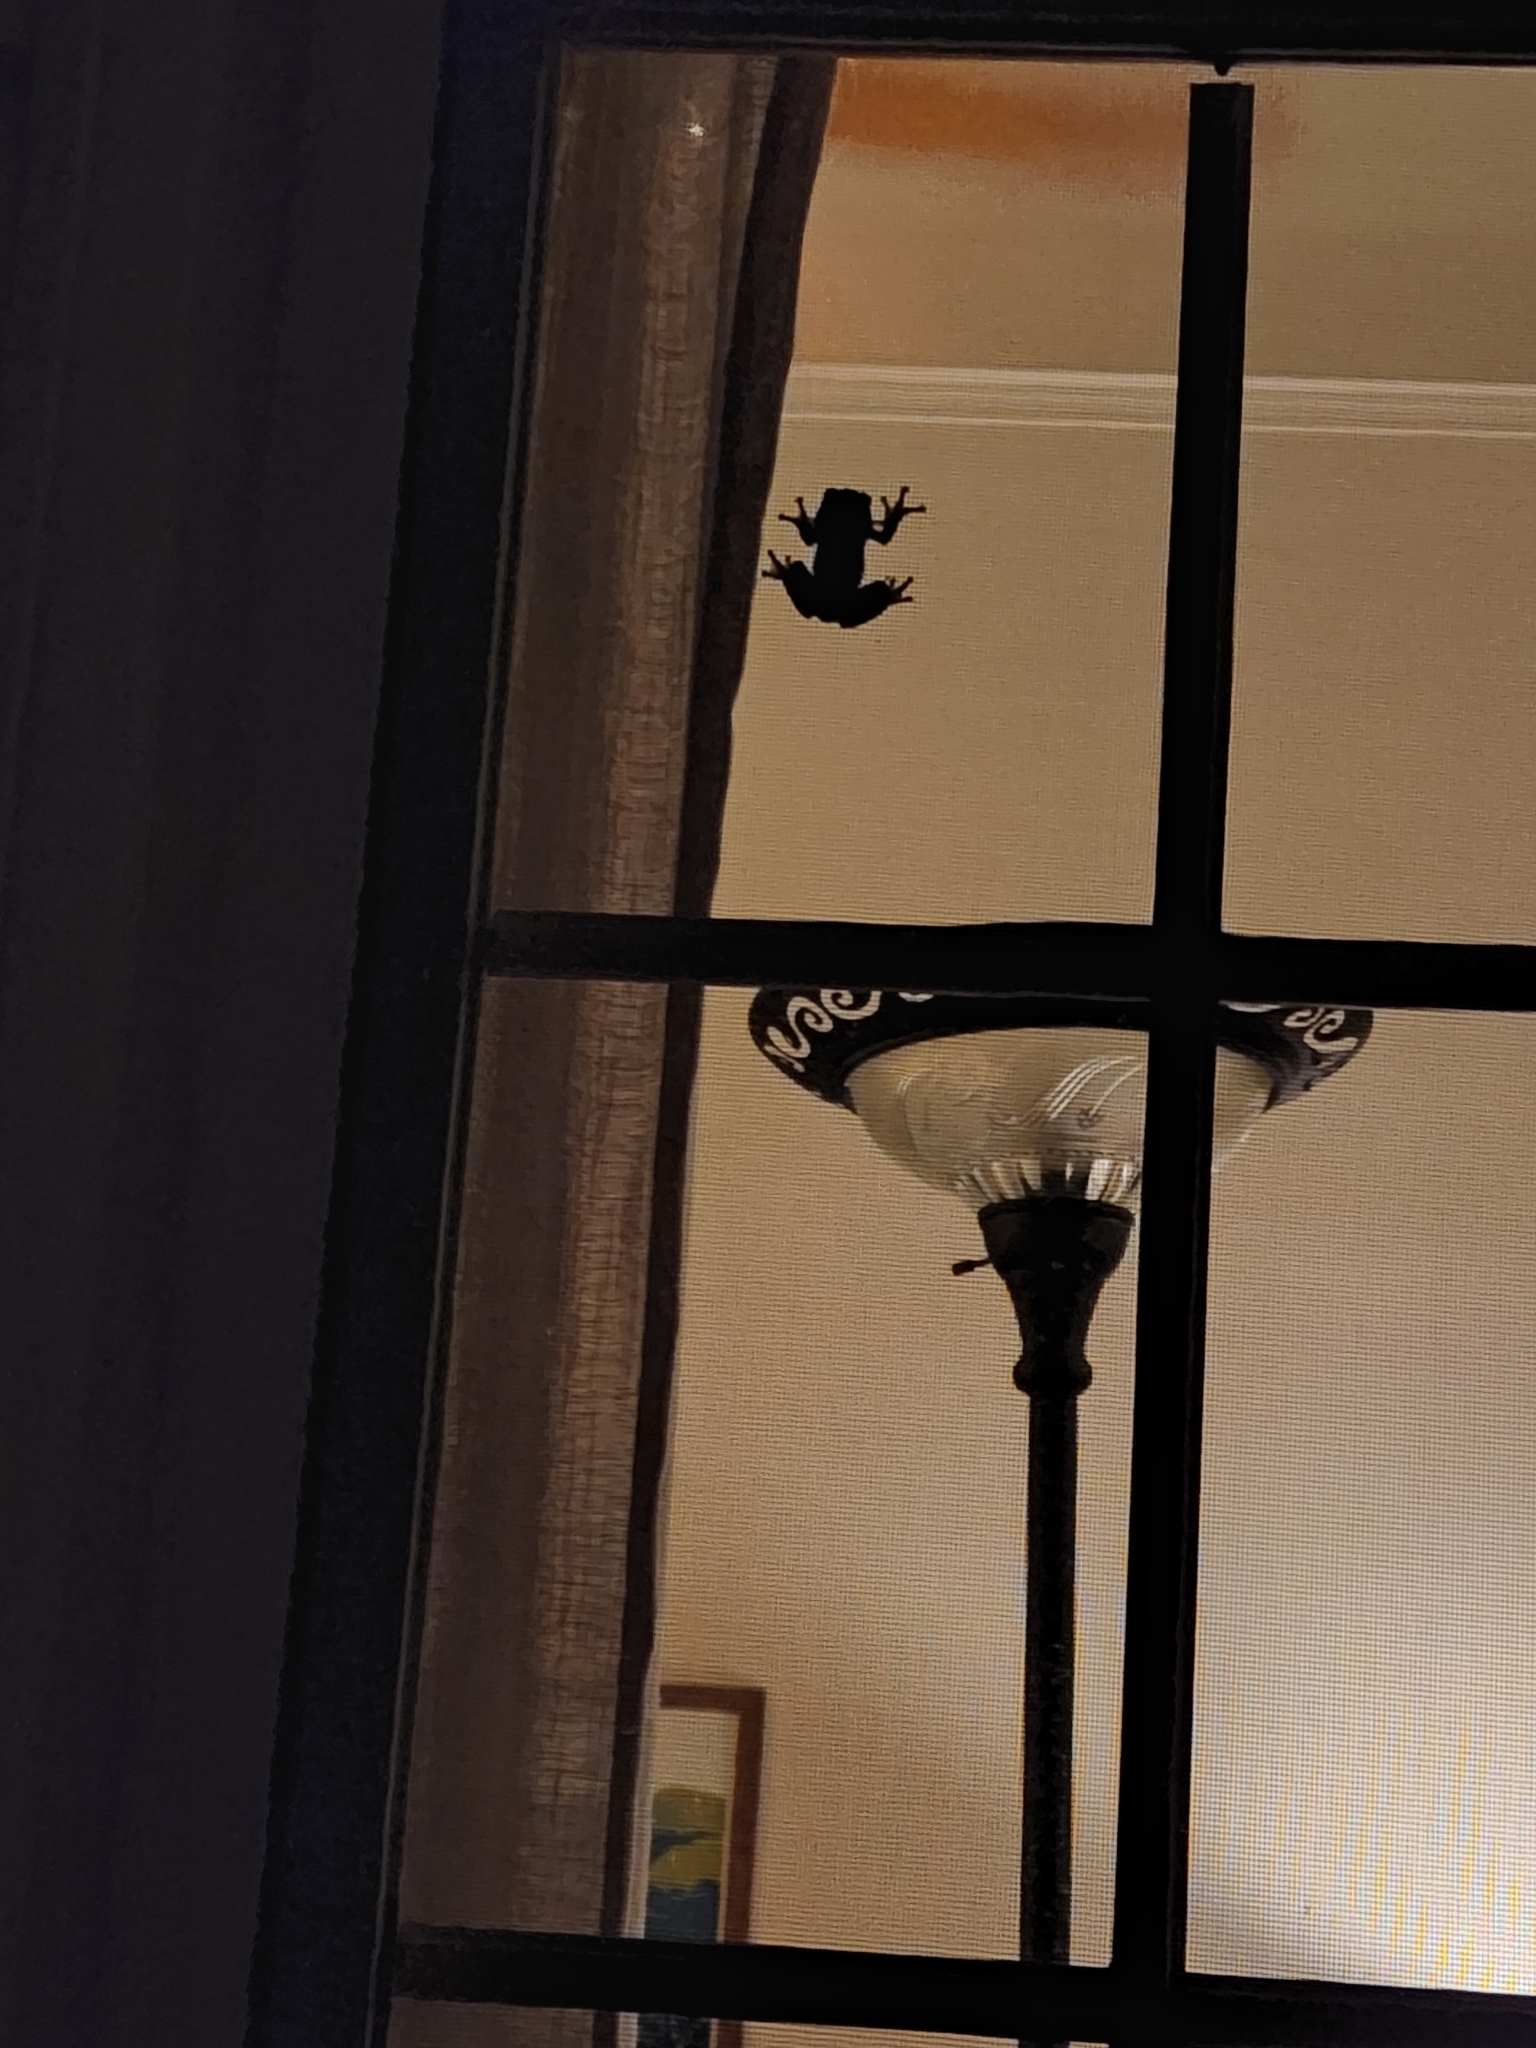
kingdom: Animalia
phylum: Chordata
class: Amphibia
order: Anura
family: Hylidae
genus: Dryophytes
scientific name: Dryophytes versicolor
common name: Gray treefrog
